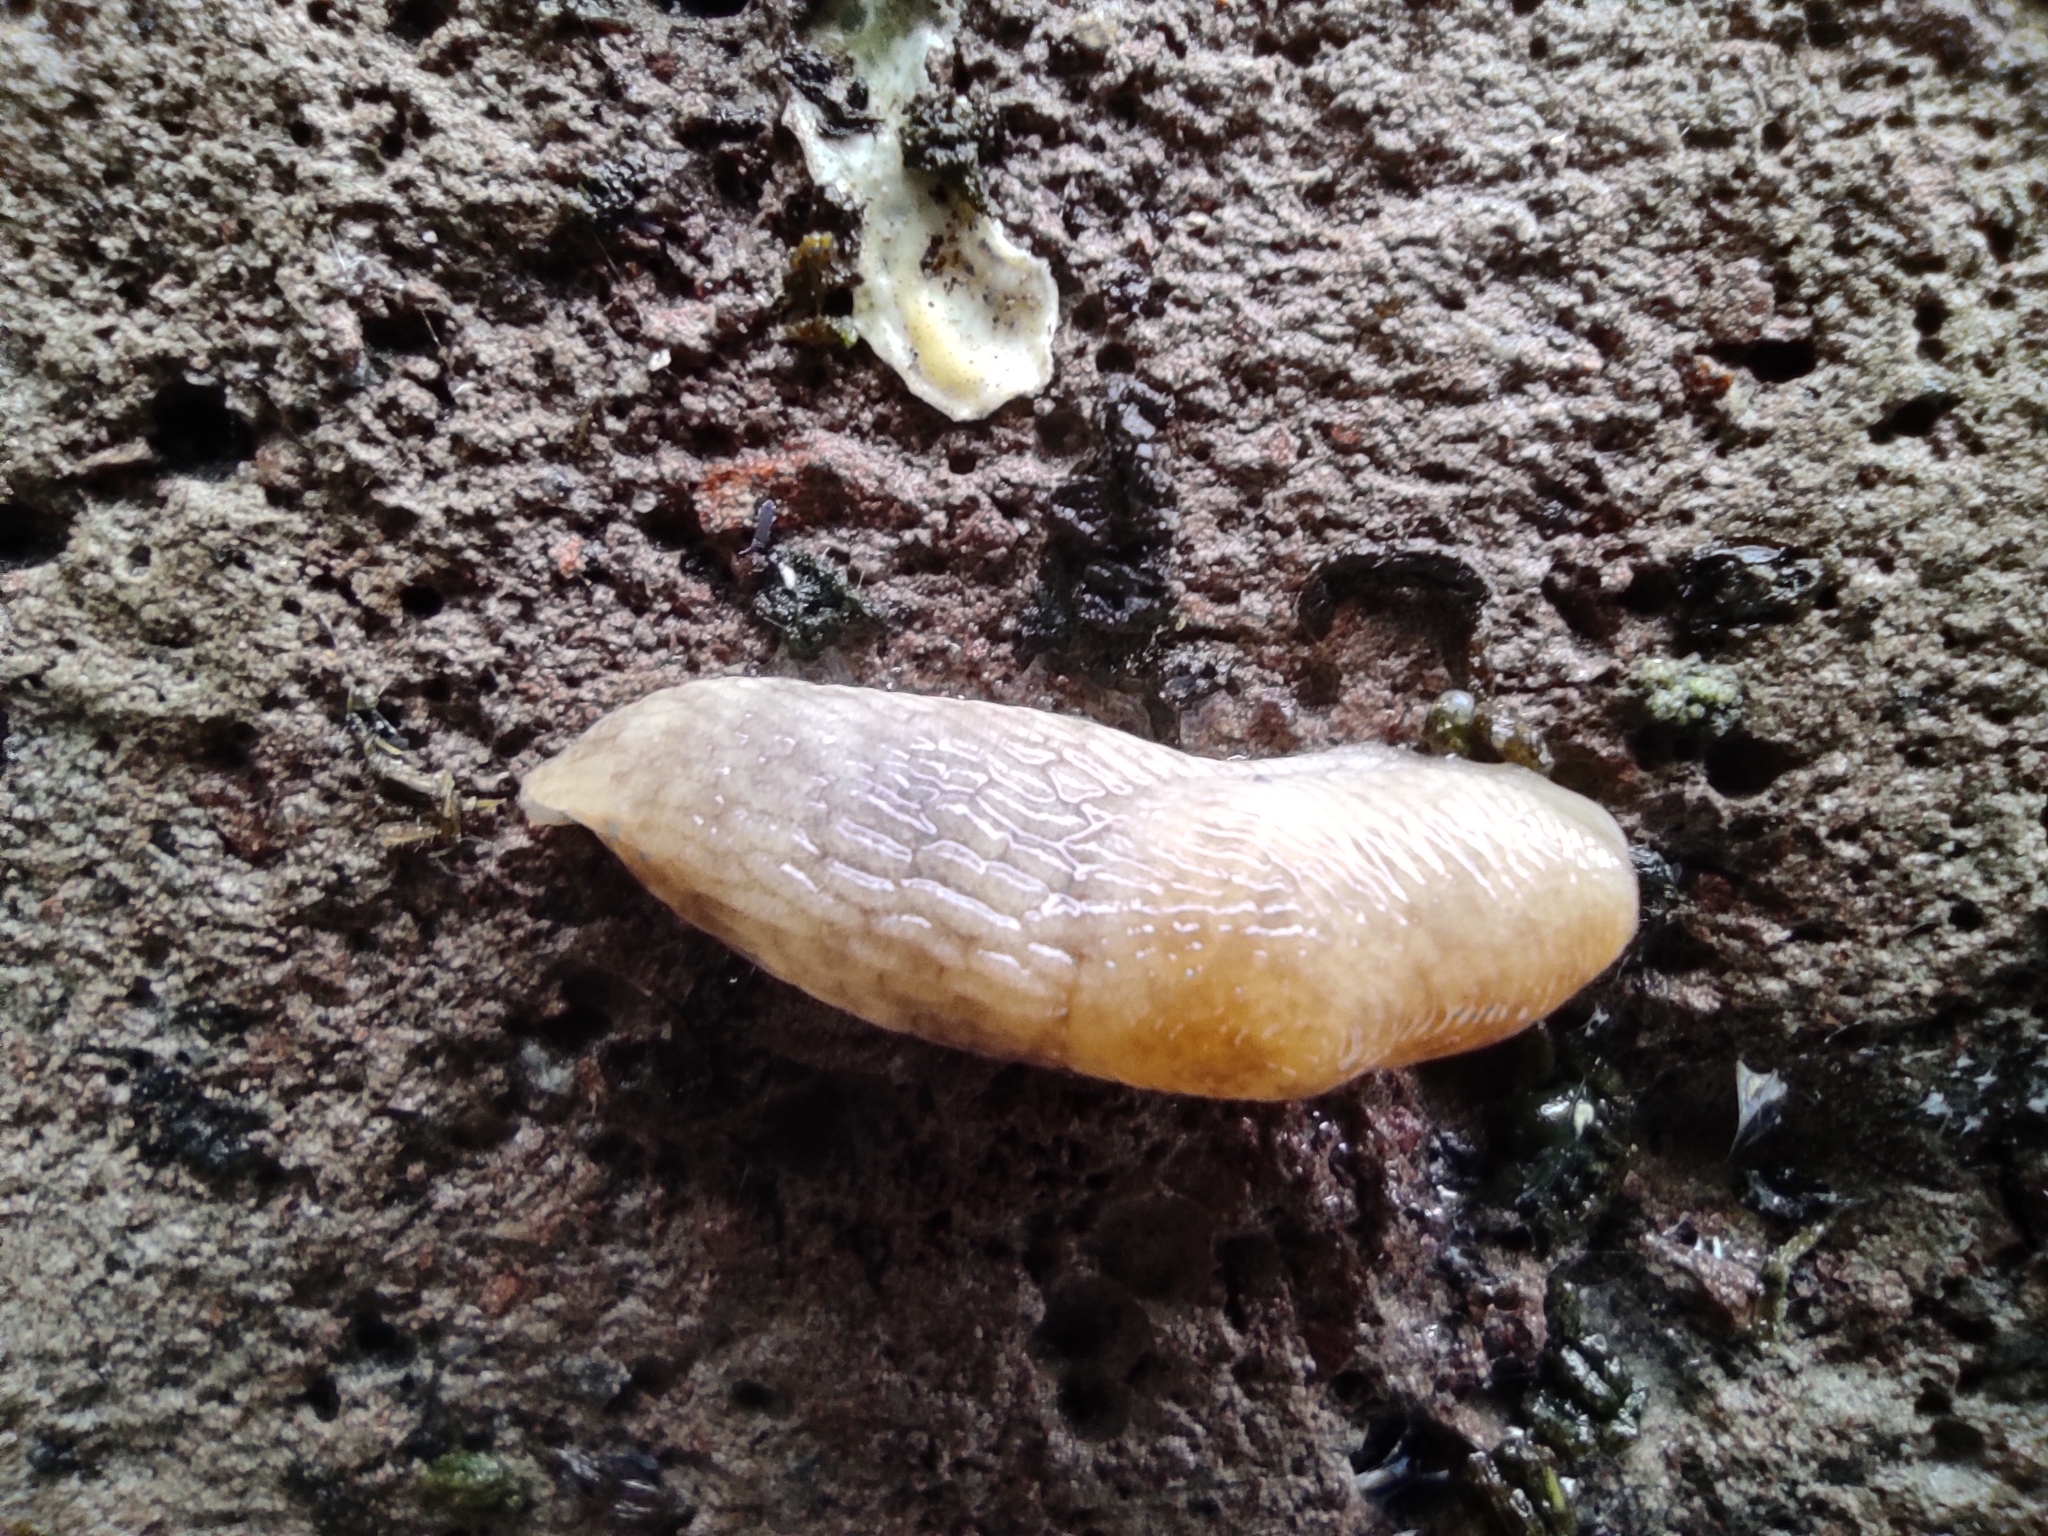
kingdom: Animalia
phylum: Mollusca
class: Gastropoda
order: Stylommatophora
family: Agriolimacidae
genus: Deroceras
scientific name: Deroceras reticulatum
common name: Gray field slug
